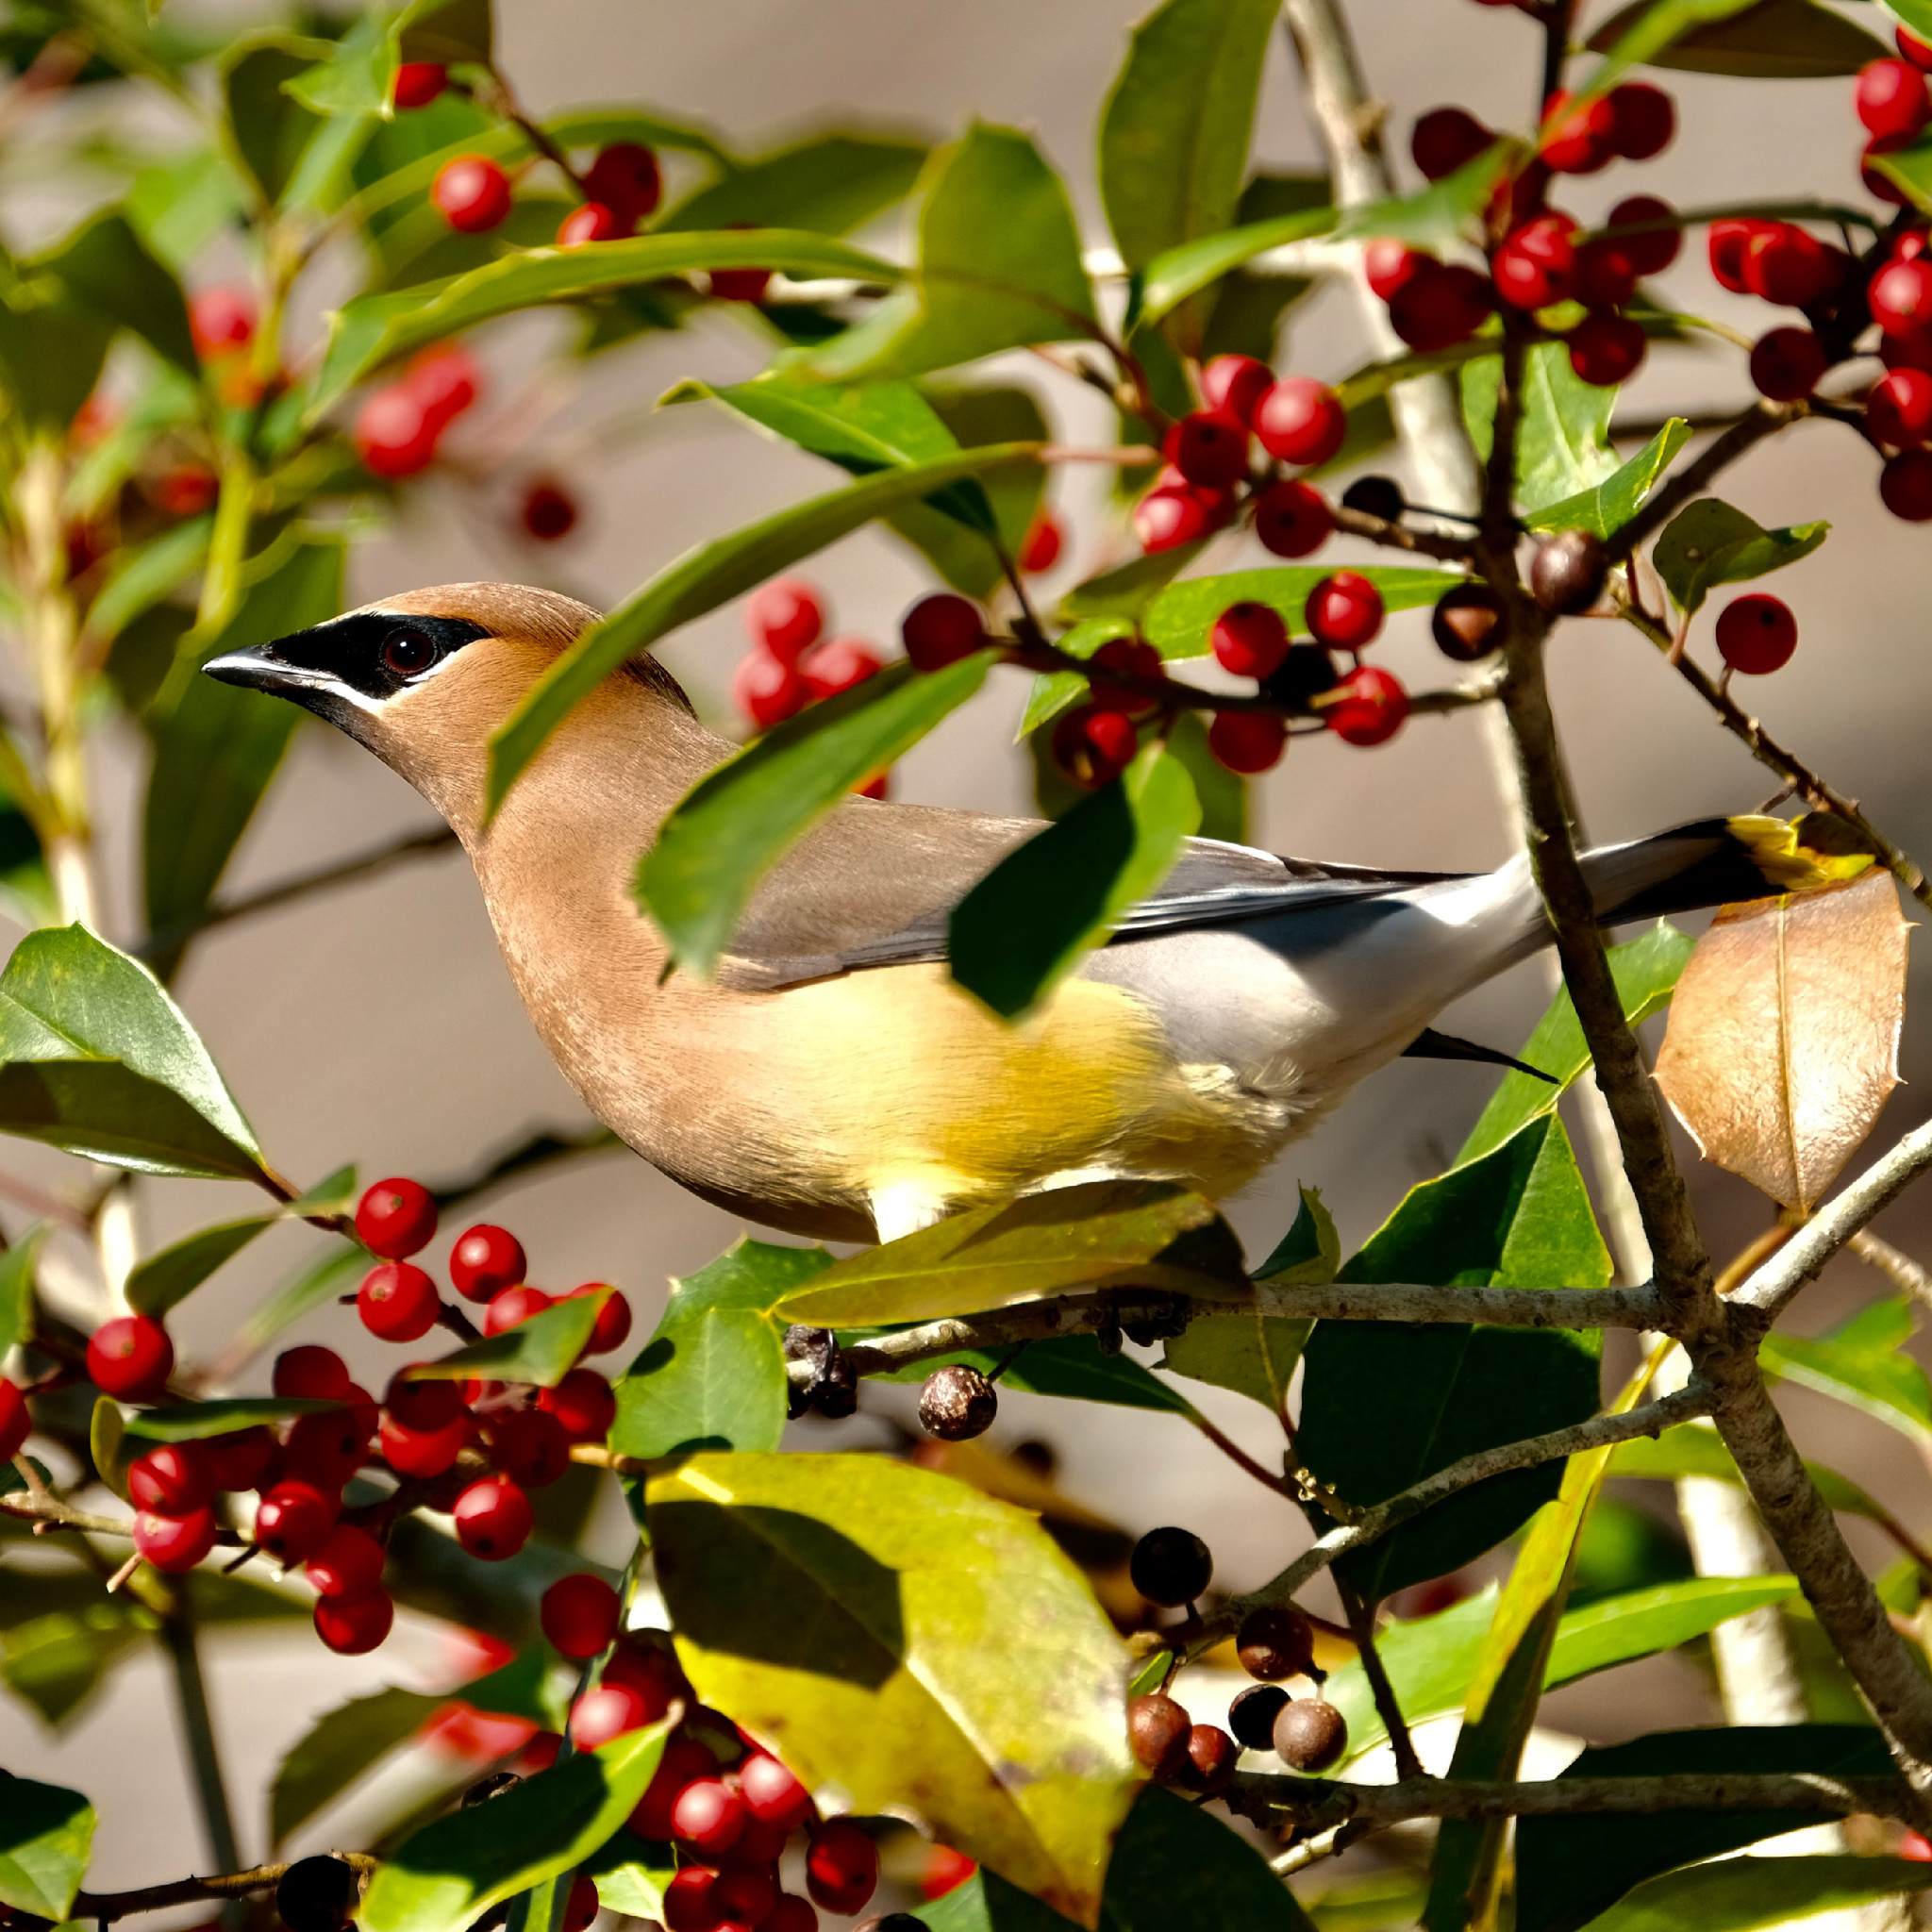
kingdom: Animalia
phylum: Chordata
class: Aves
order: Passeriformes
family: Bombycillidae
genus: Bombycilla
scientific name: Bombycilla cedrorum
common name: Cedar waxwing
